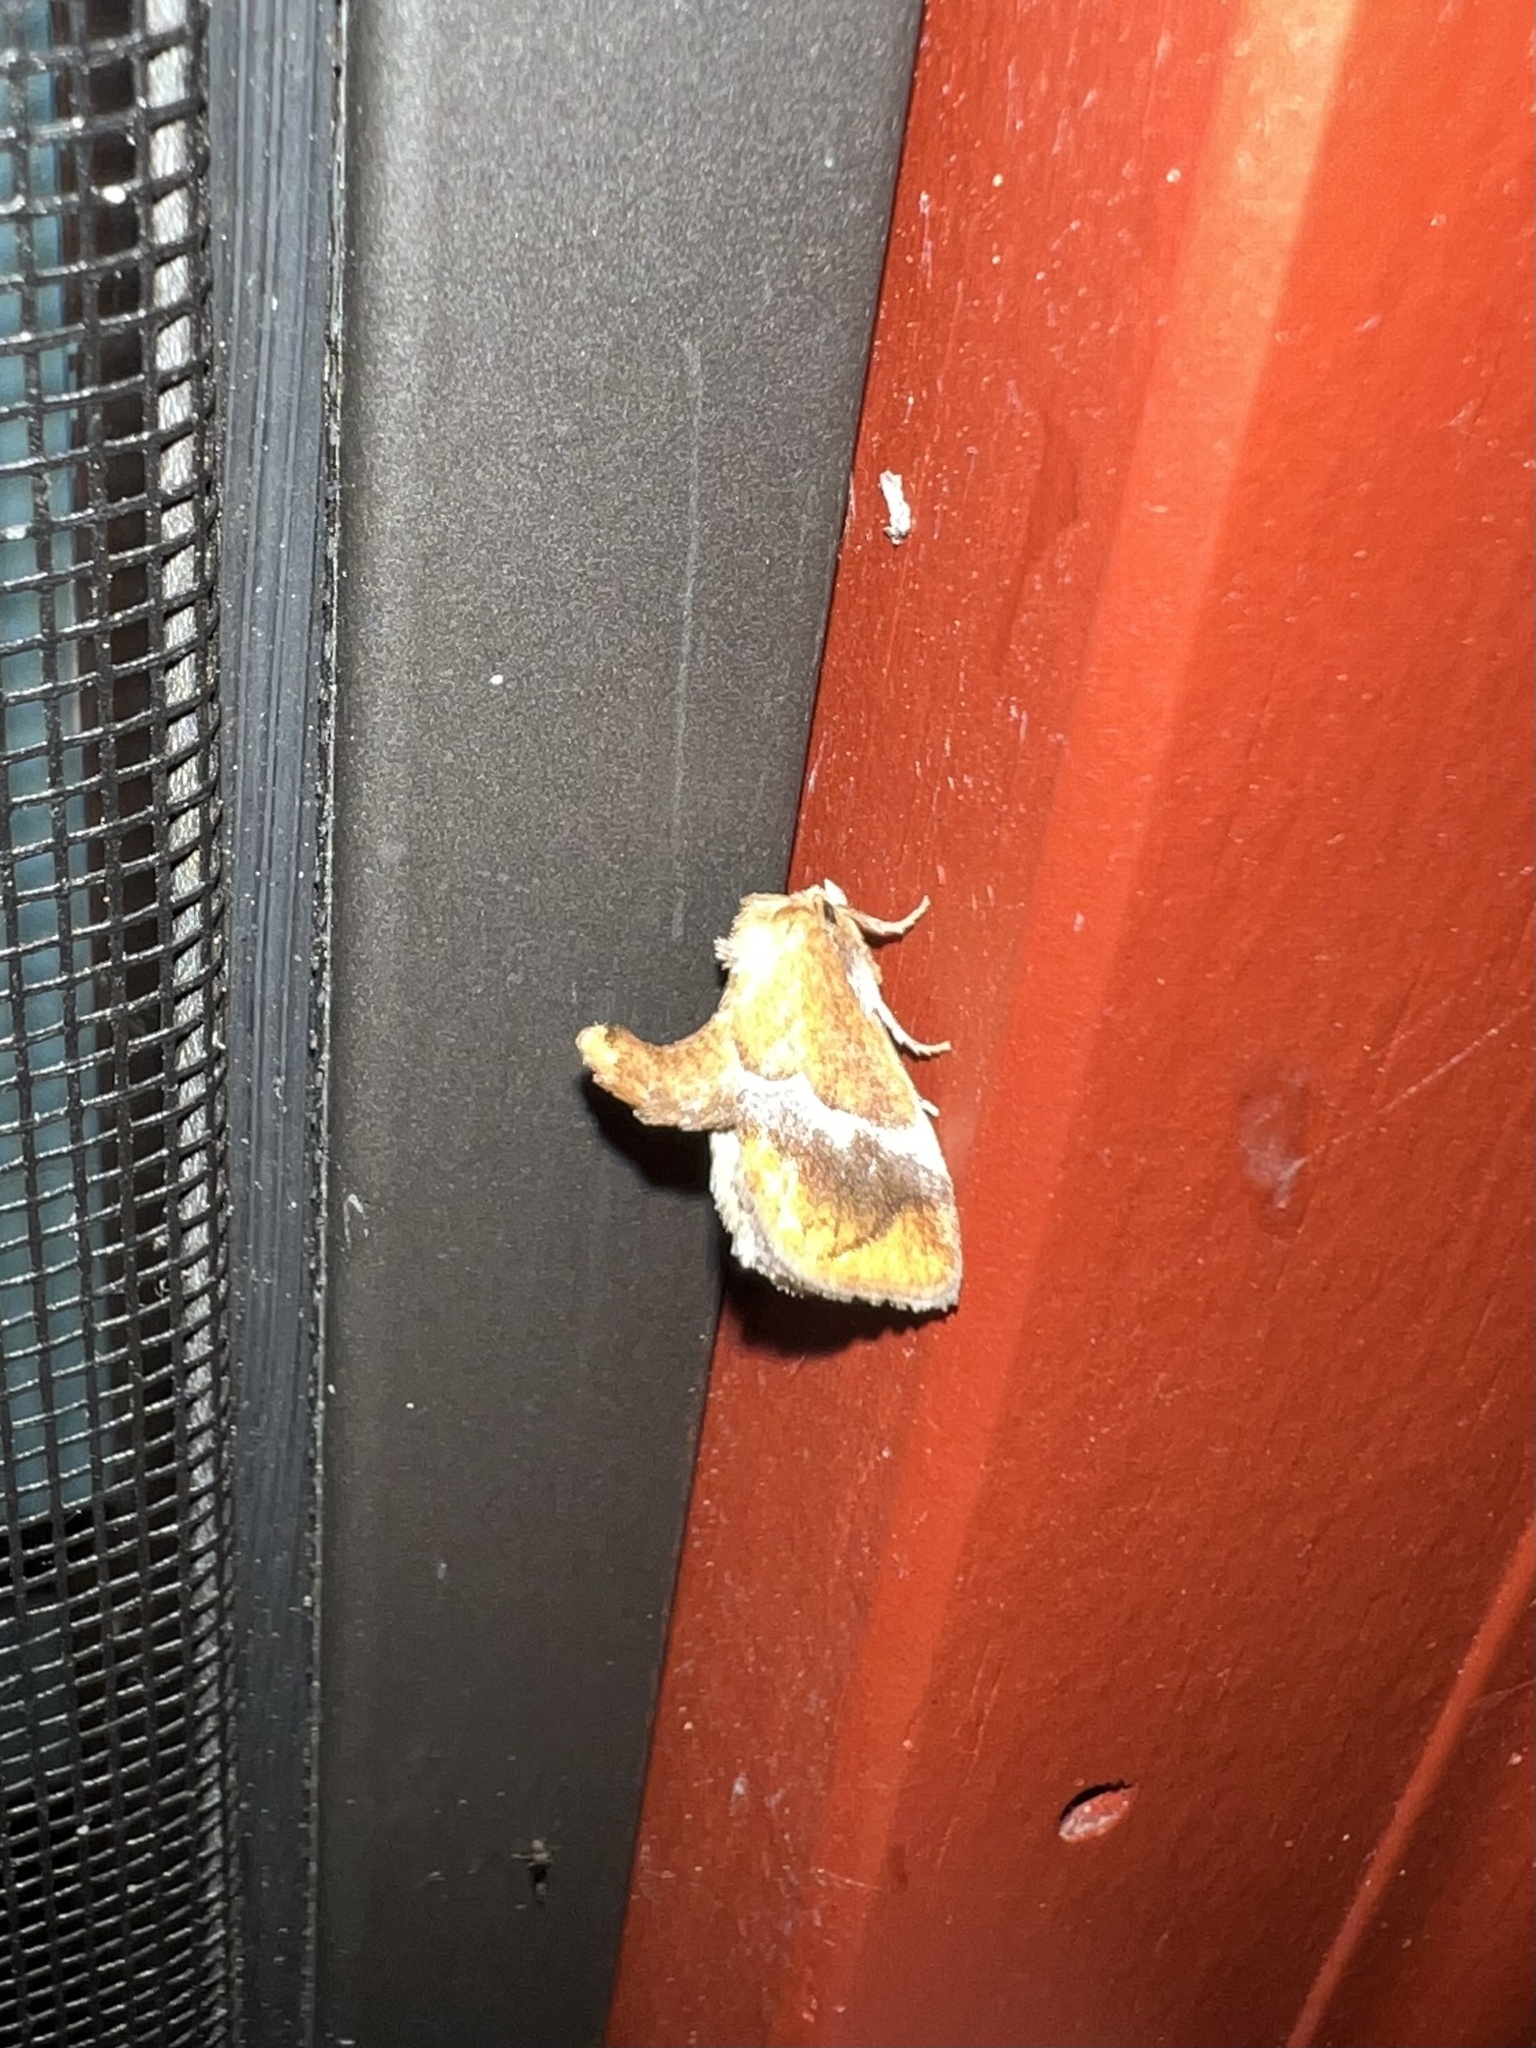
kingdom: Animalia
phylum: Arthropoda
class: Insecta
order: Lepidoptera
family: Limacodidae
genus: Lithacodes
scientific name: Lithacodes fasciola
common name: Yellow-shouldered slug moth
